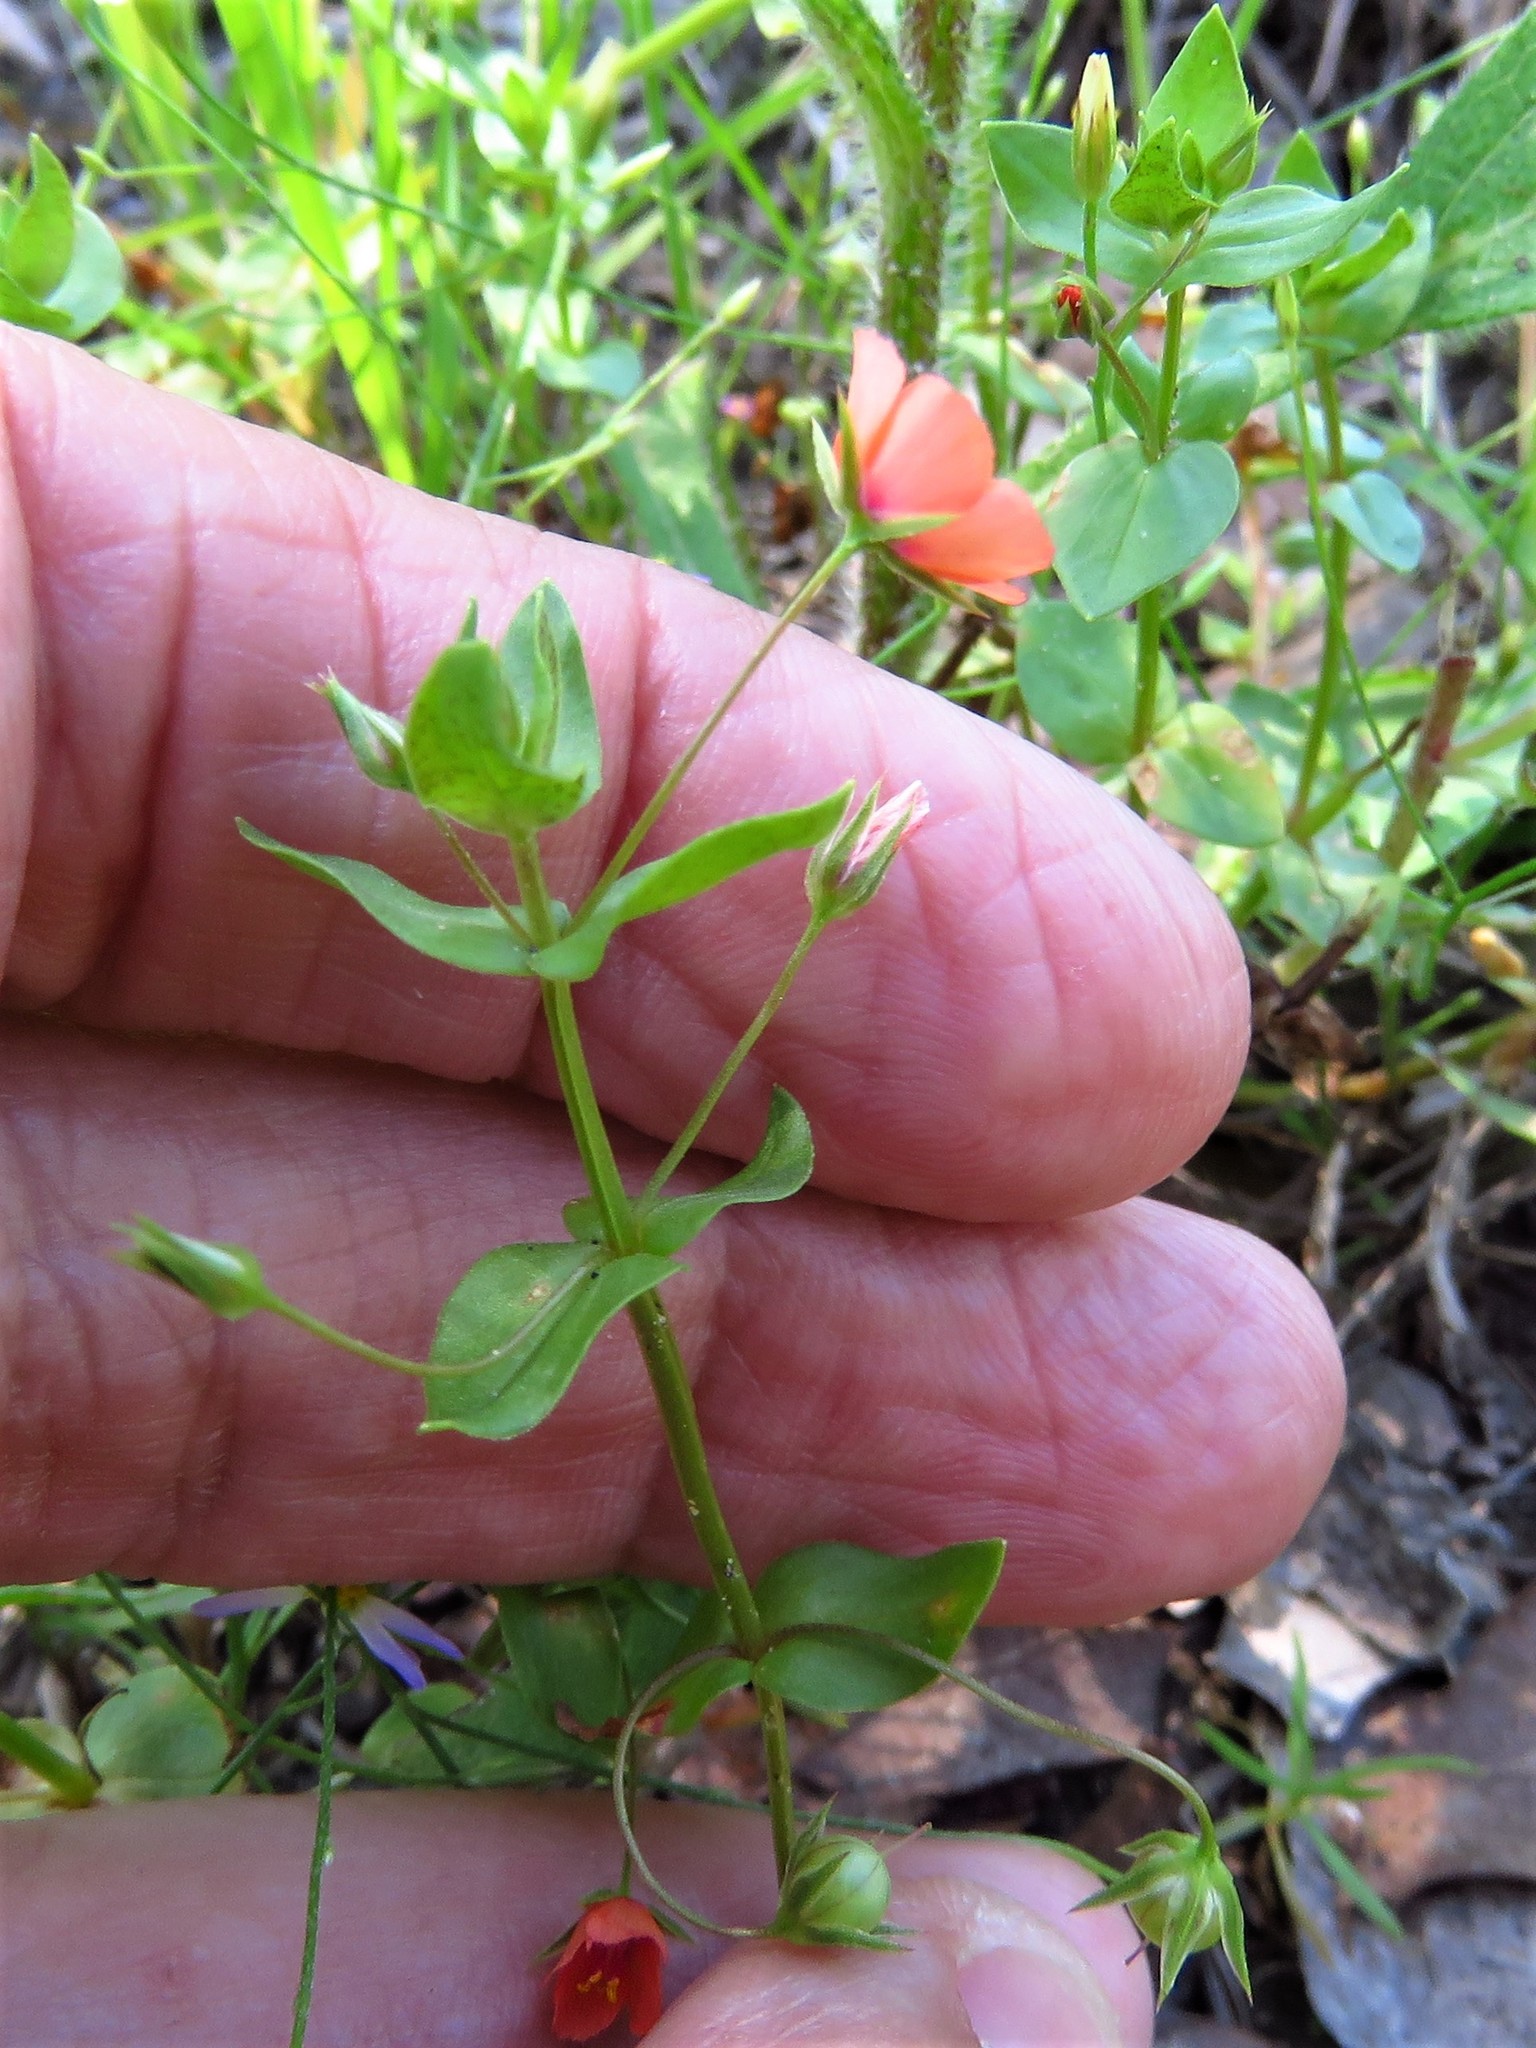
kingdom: Plantae
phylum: Tracheophyta
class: Magnoliopsida
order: Ericales
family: Primulaceae
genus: Lysimachia
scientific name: Lysimachia arvensis
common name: Scarlet pimpernel
